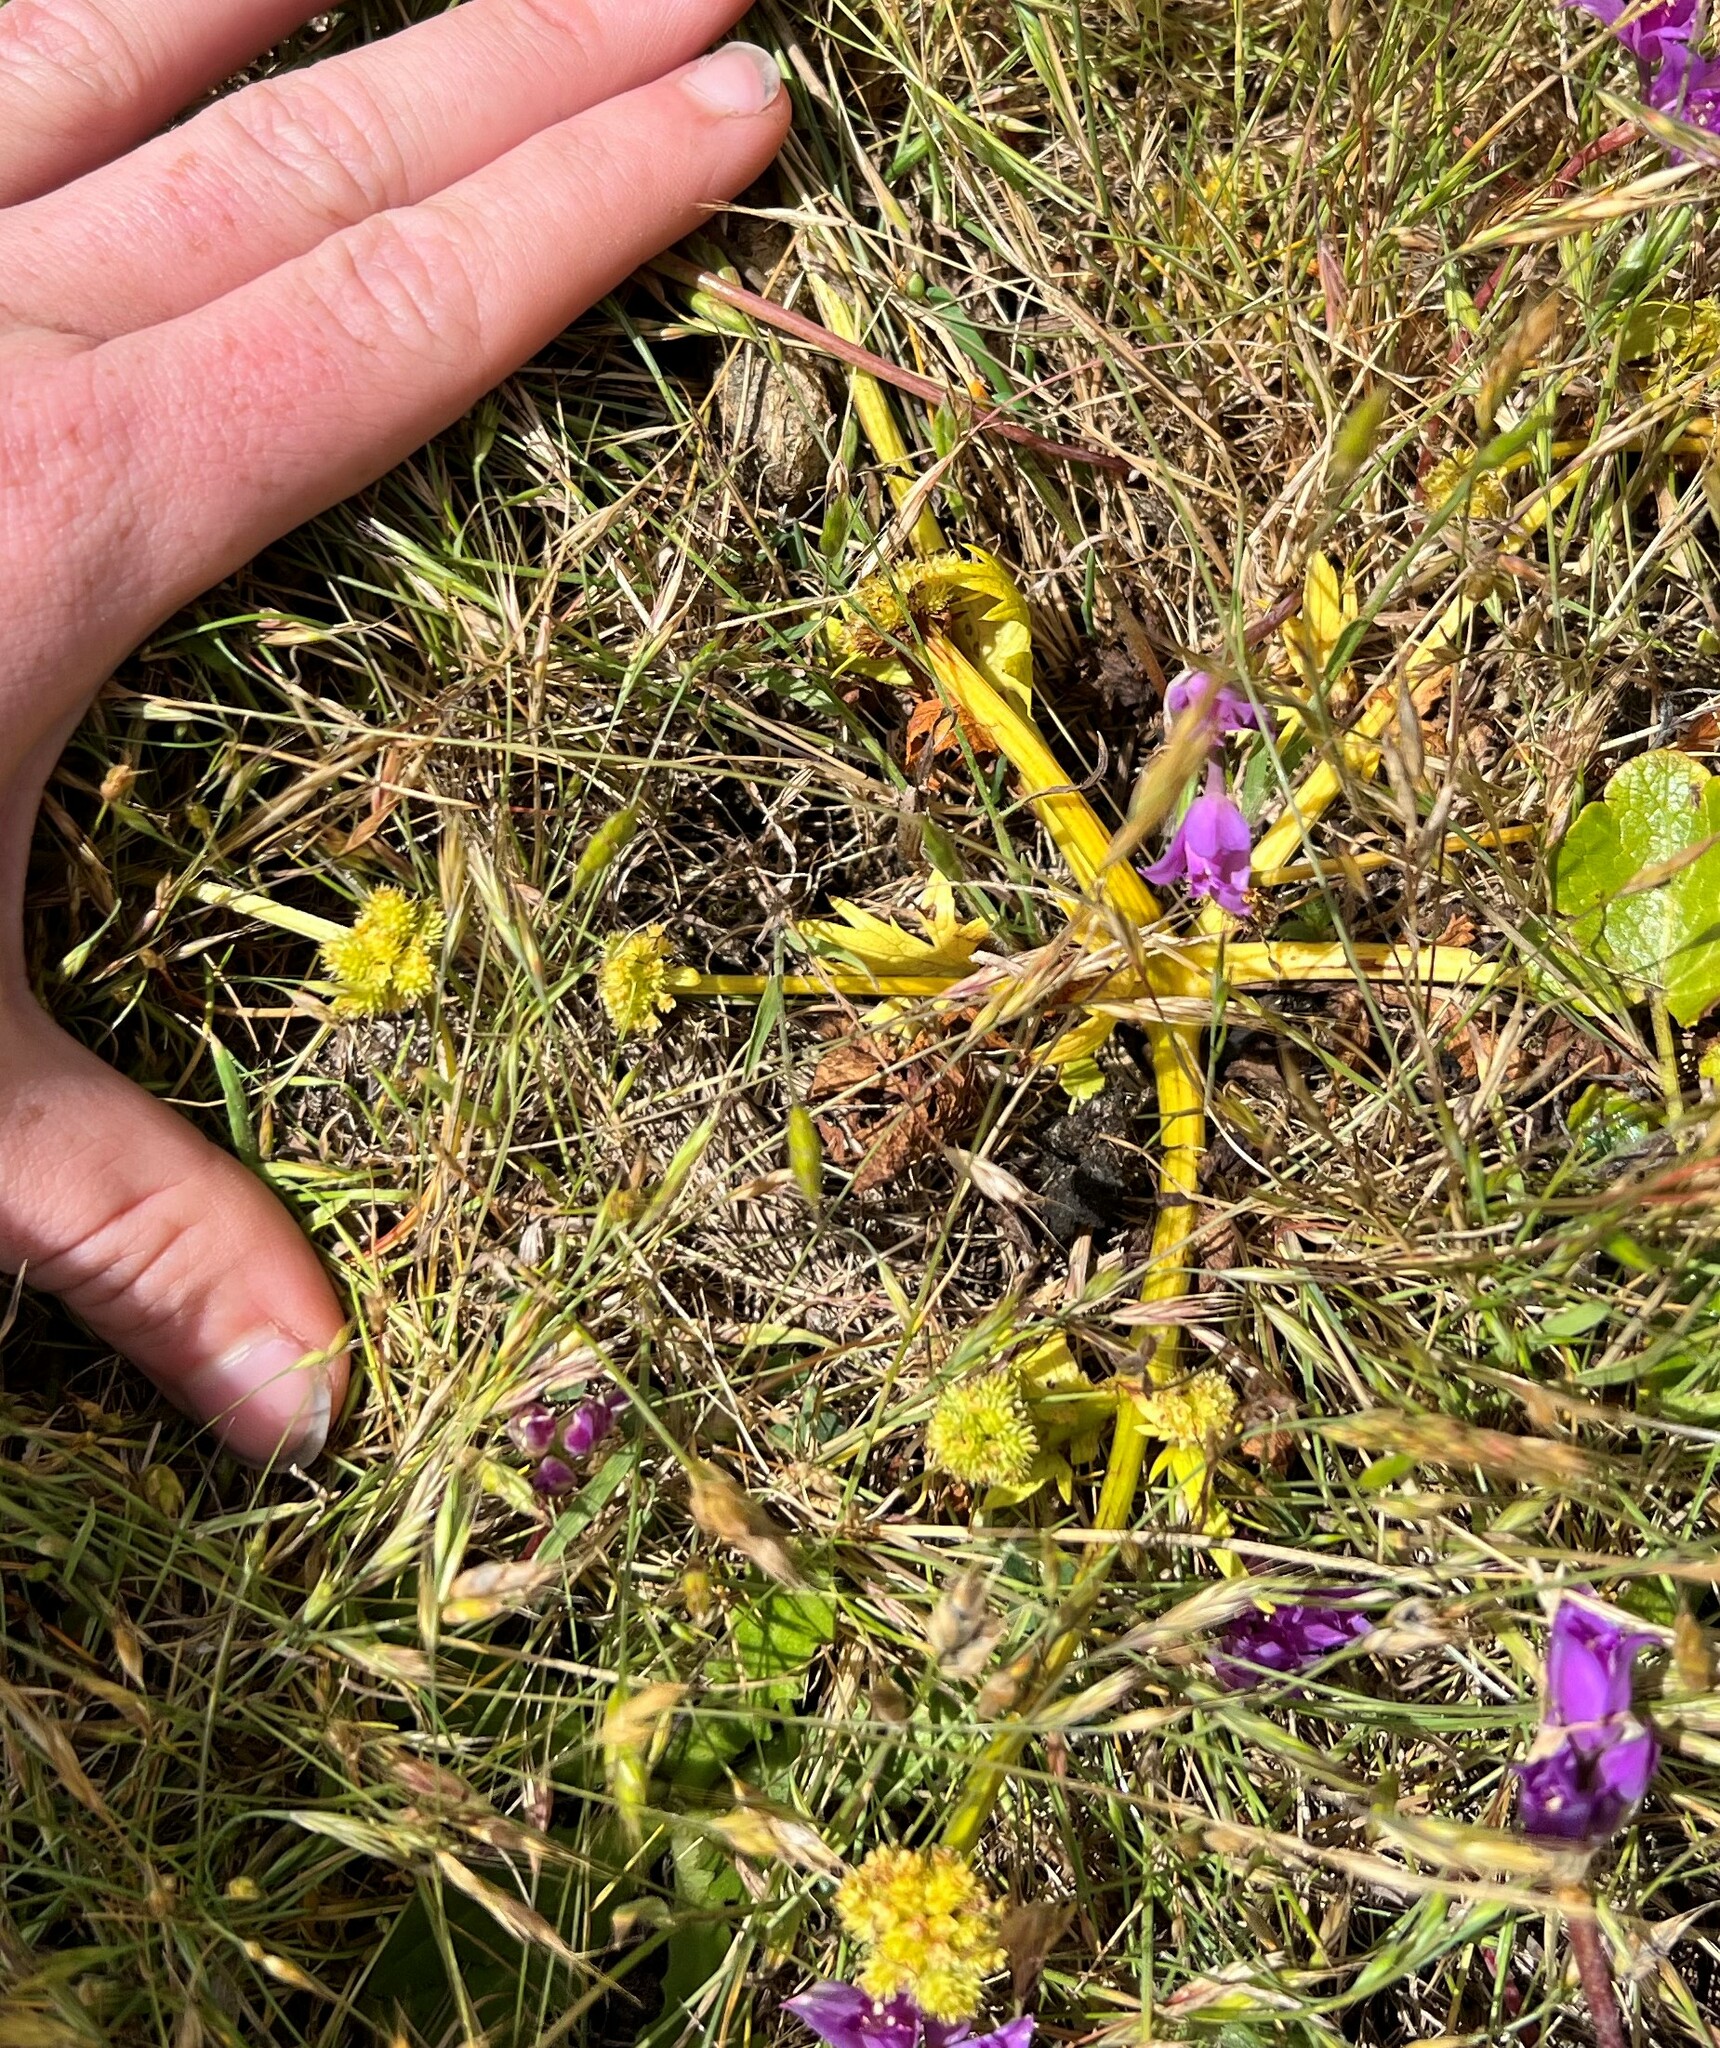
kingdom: Plantae
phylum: Tracheophyta
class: Magnoliopsida
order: Apiales
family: Apiaceae
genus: Sanicula
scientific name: Sanicula arctopoides
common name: Footsteps-of-spring
